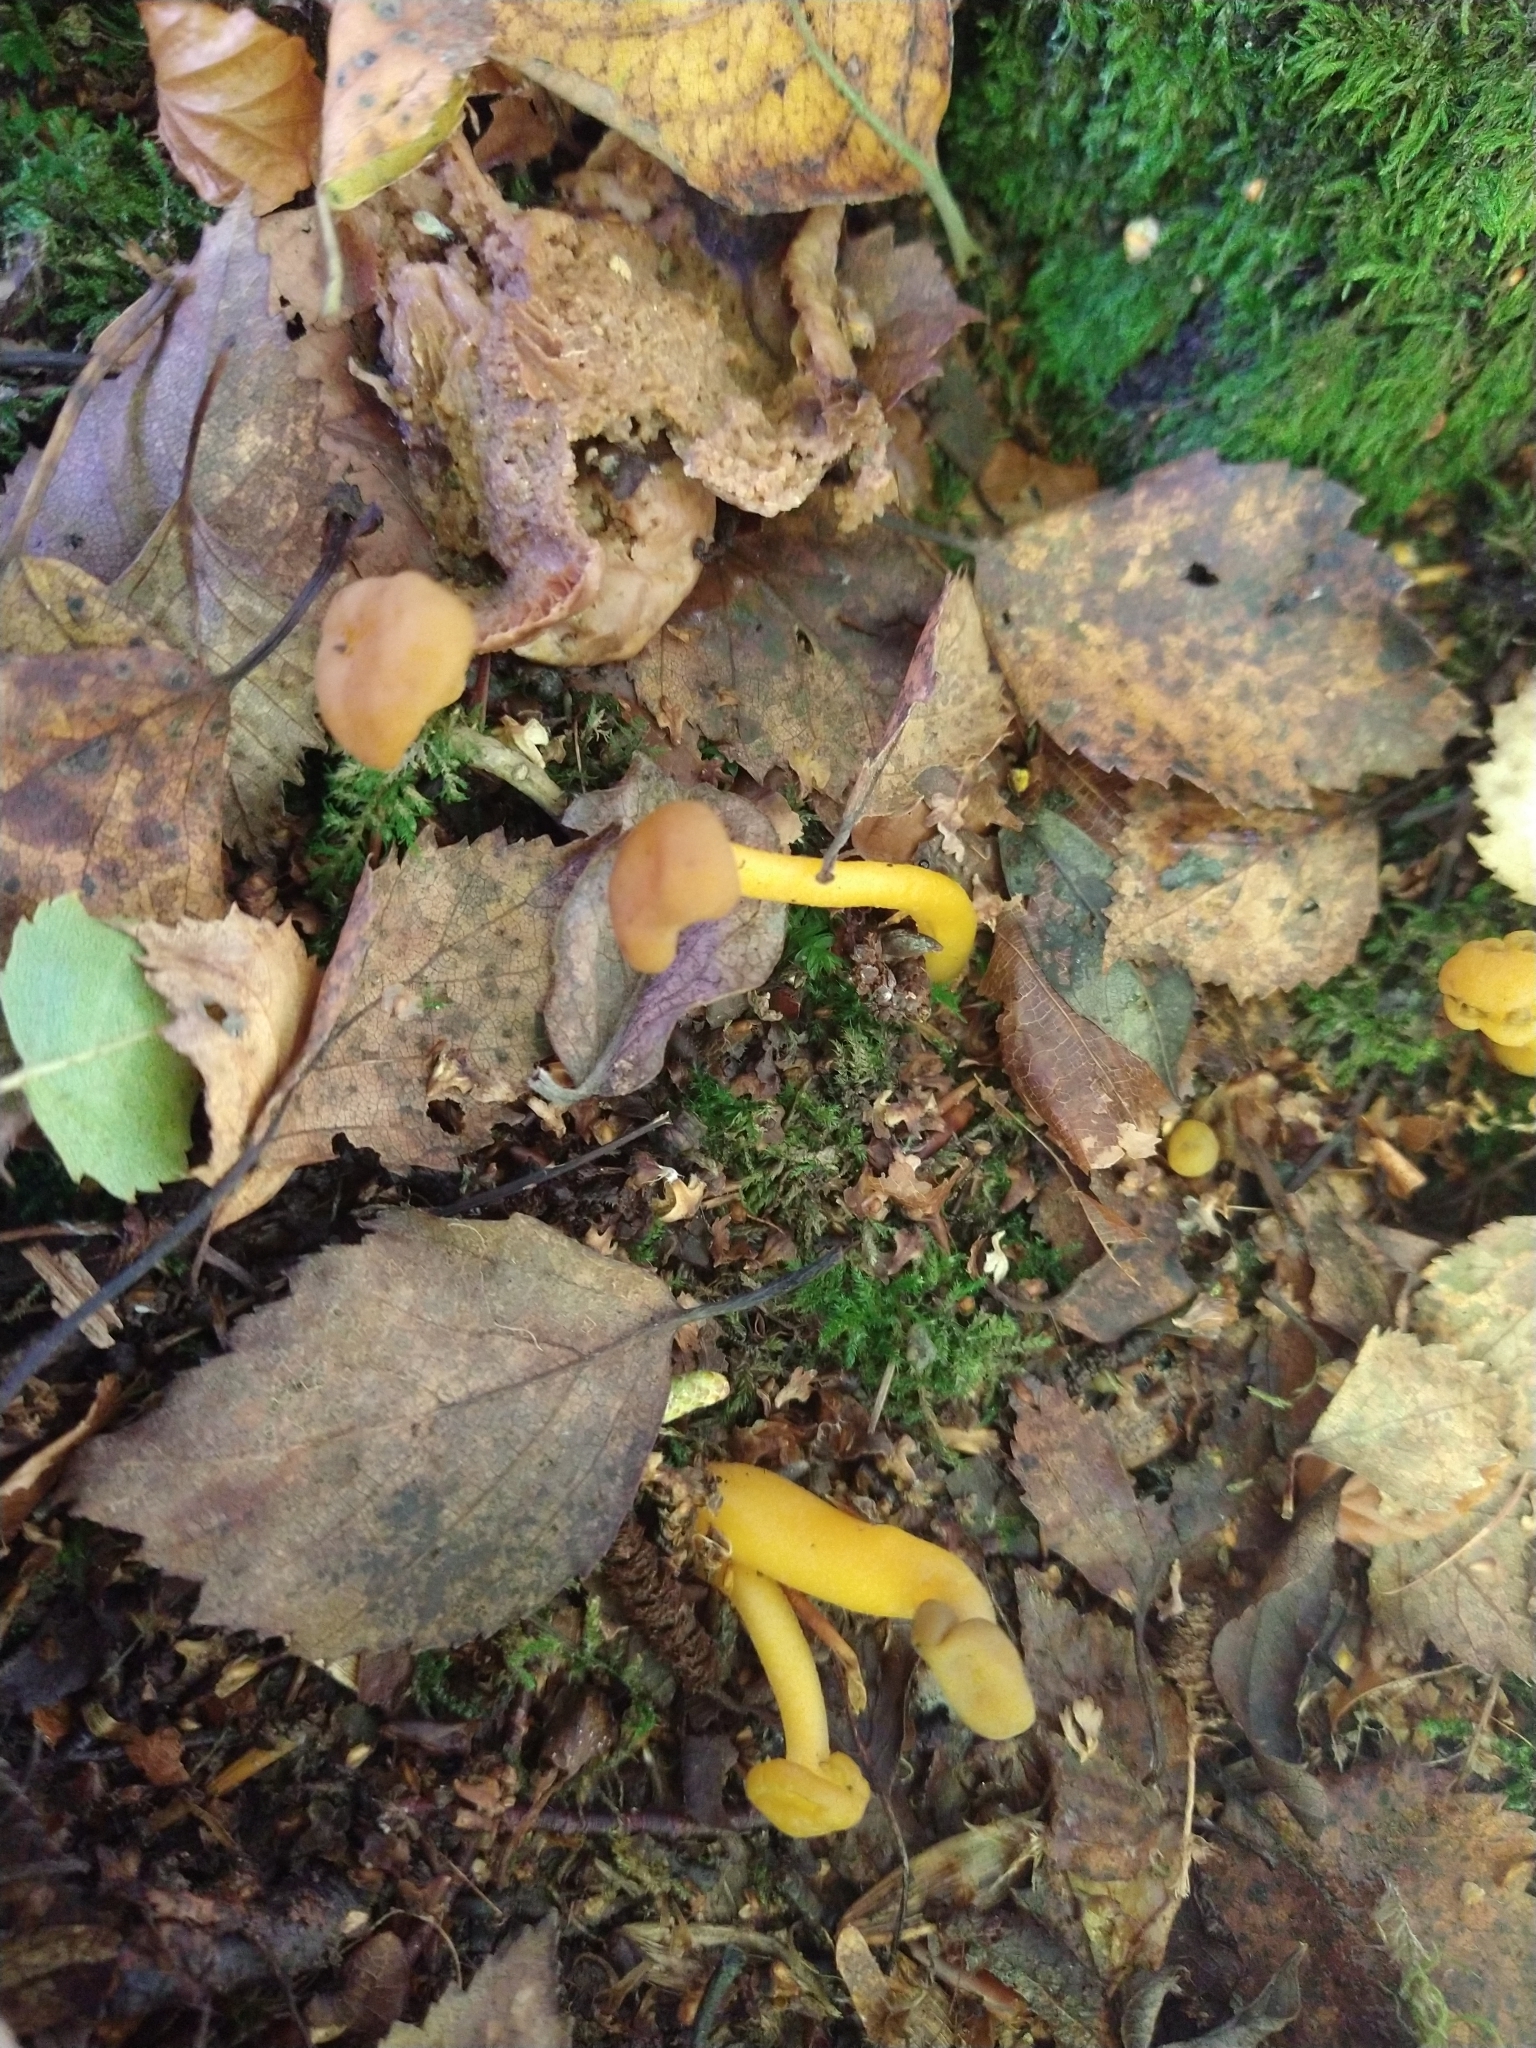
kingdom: Fungi
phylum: Ascomycota
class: Leotiomycetes
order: Leotiales
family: Leotiaceae
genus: Leotia
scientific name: Leotia lubrica
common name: Jellybaby
